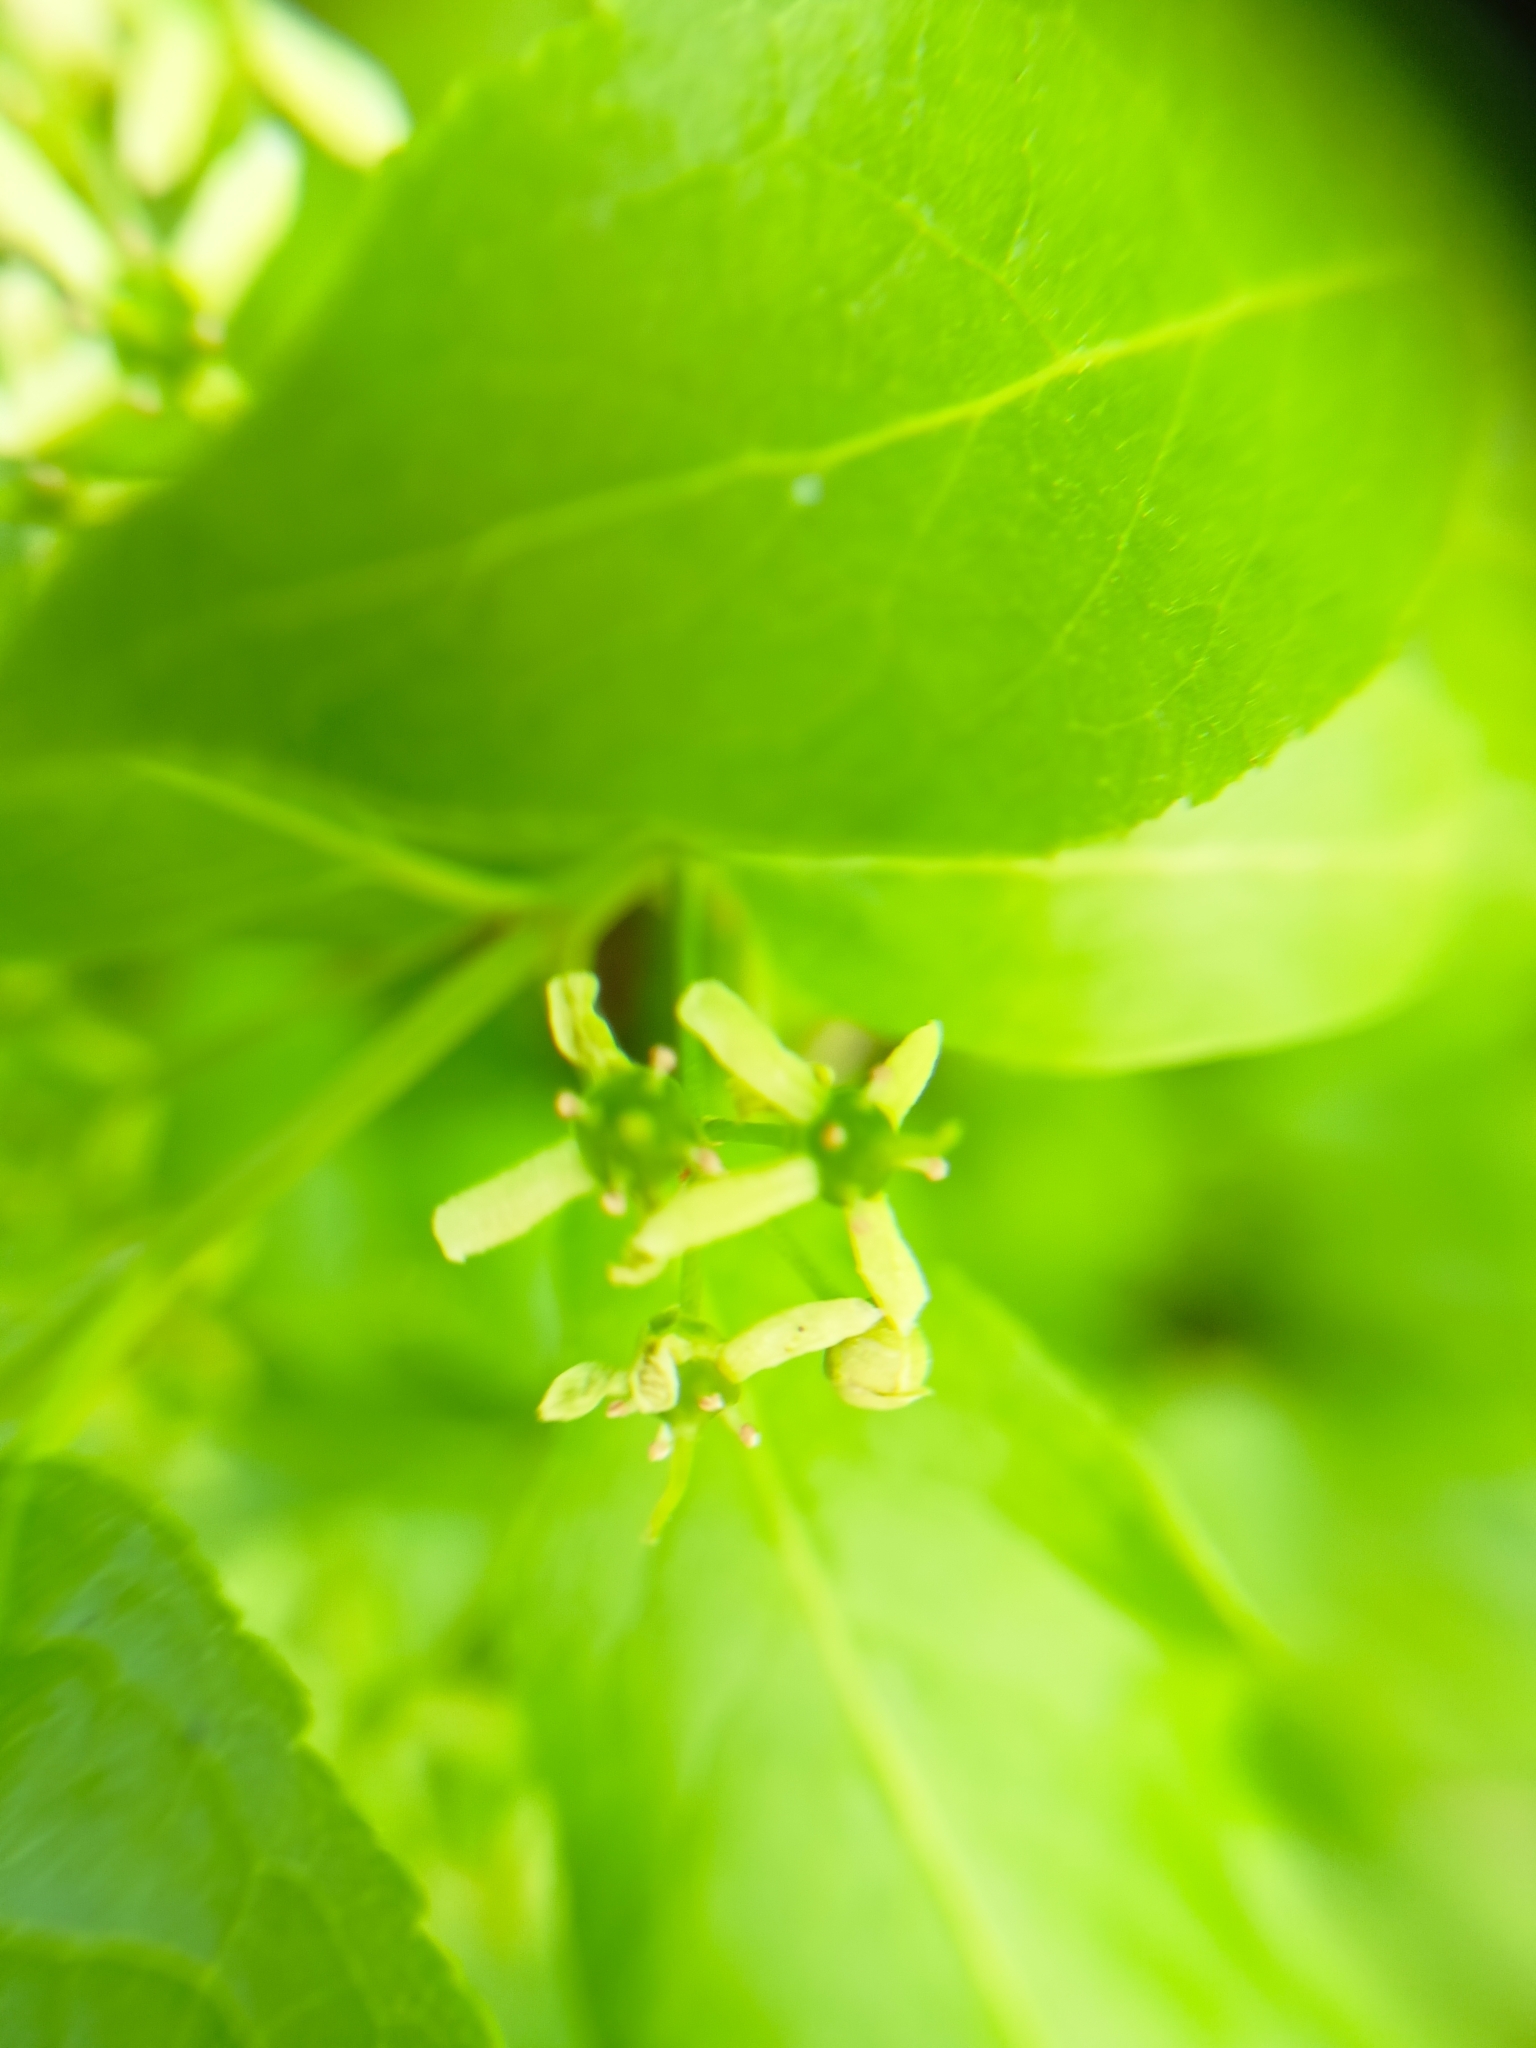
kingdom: Plantae
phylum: Tracheophyta
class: Magnoliopsida
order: Celastrales
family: Celastraceae
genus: Euonymus
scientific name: Euonymus europaeus
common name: Spindle
